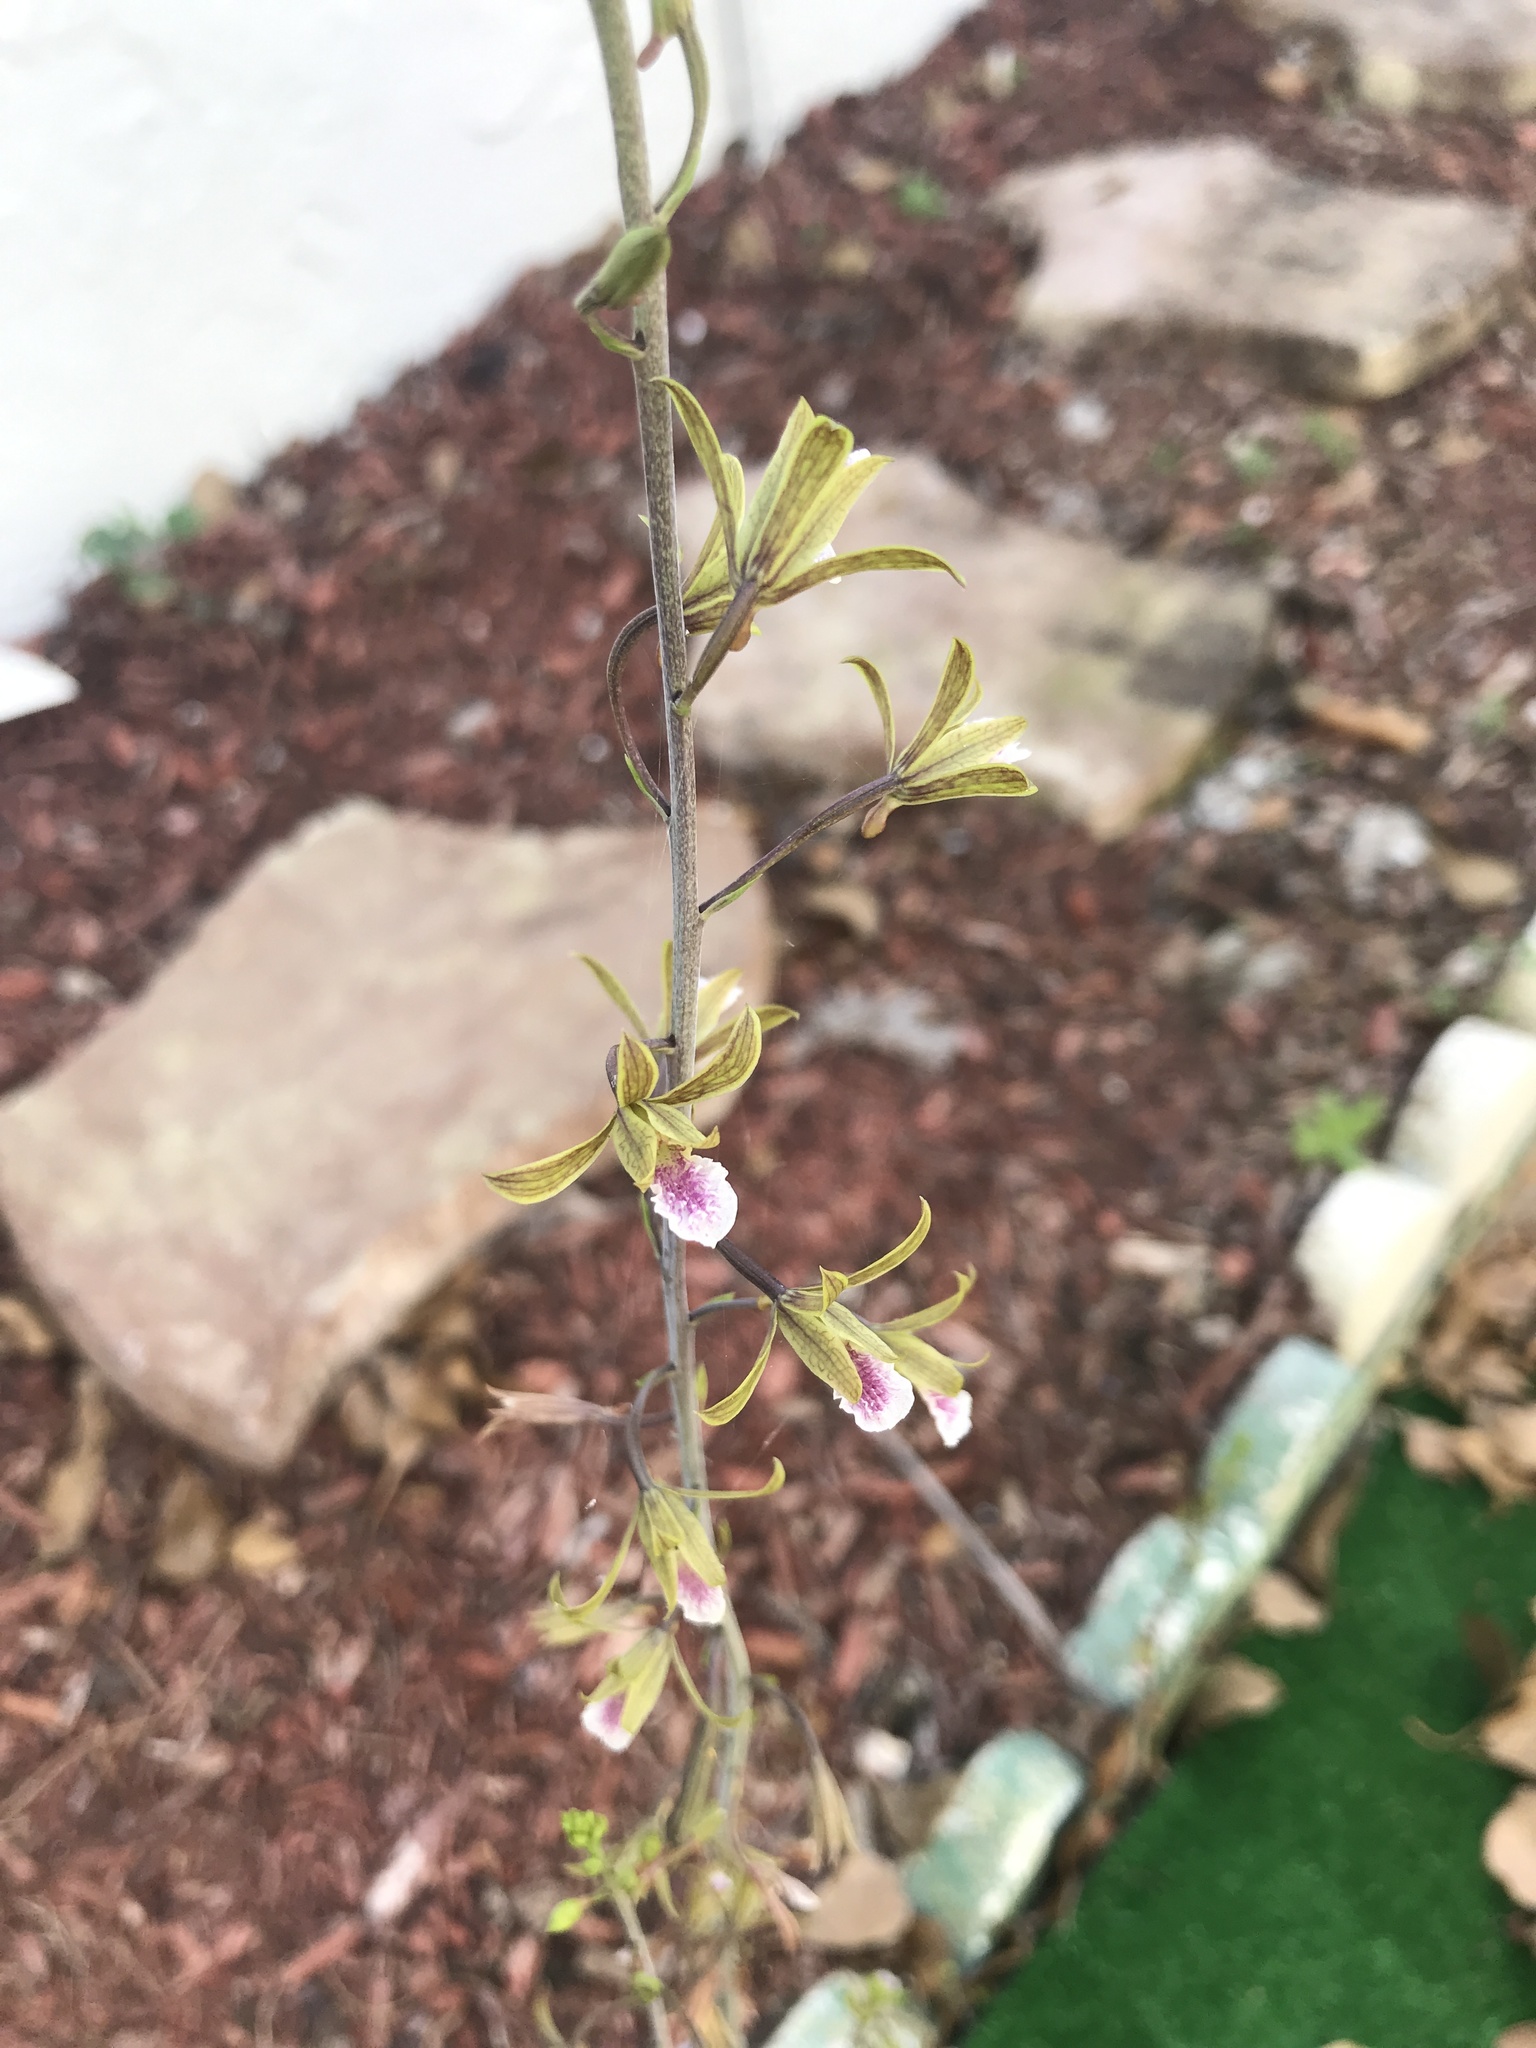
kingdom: Plantae
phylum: Tracheophyta
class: Liliopsida
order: Asparagales
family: Orchidaceae
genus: Eulophia
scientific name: Eulophia graminea
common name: Orchid
